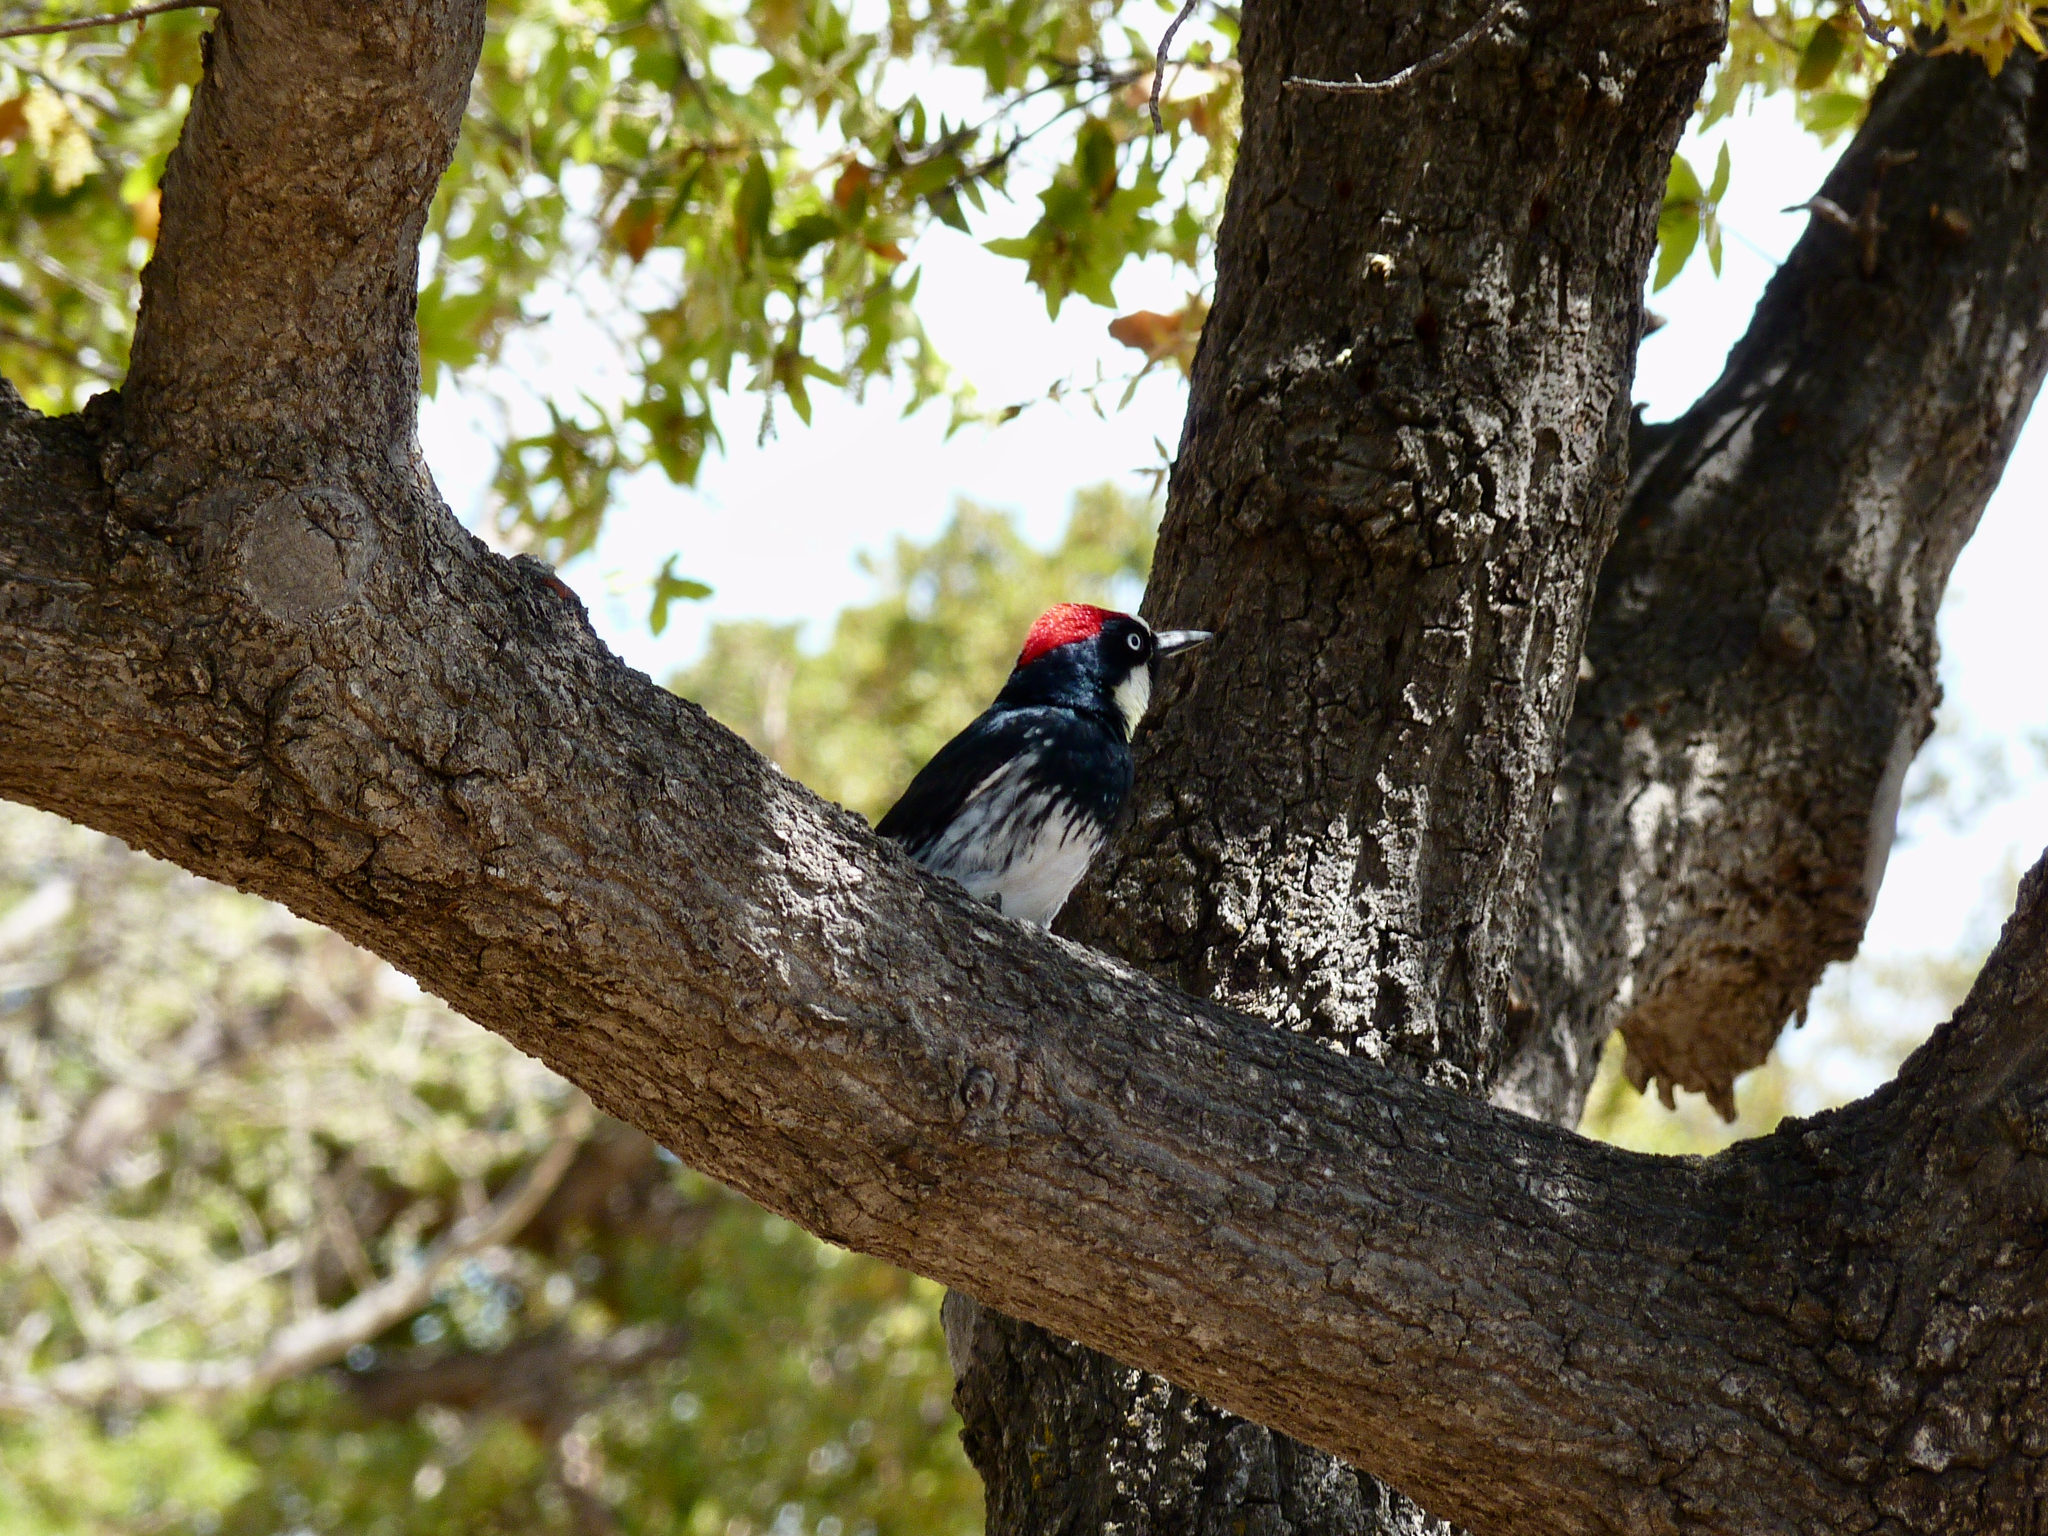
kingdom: Animalia
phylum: Chordata
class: Aves
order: Piciformes
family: Picidae
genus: Melanerpes
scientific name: Melanerpes formicivorus
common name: Acorn woodpecker
